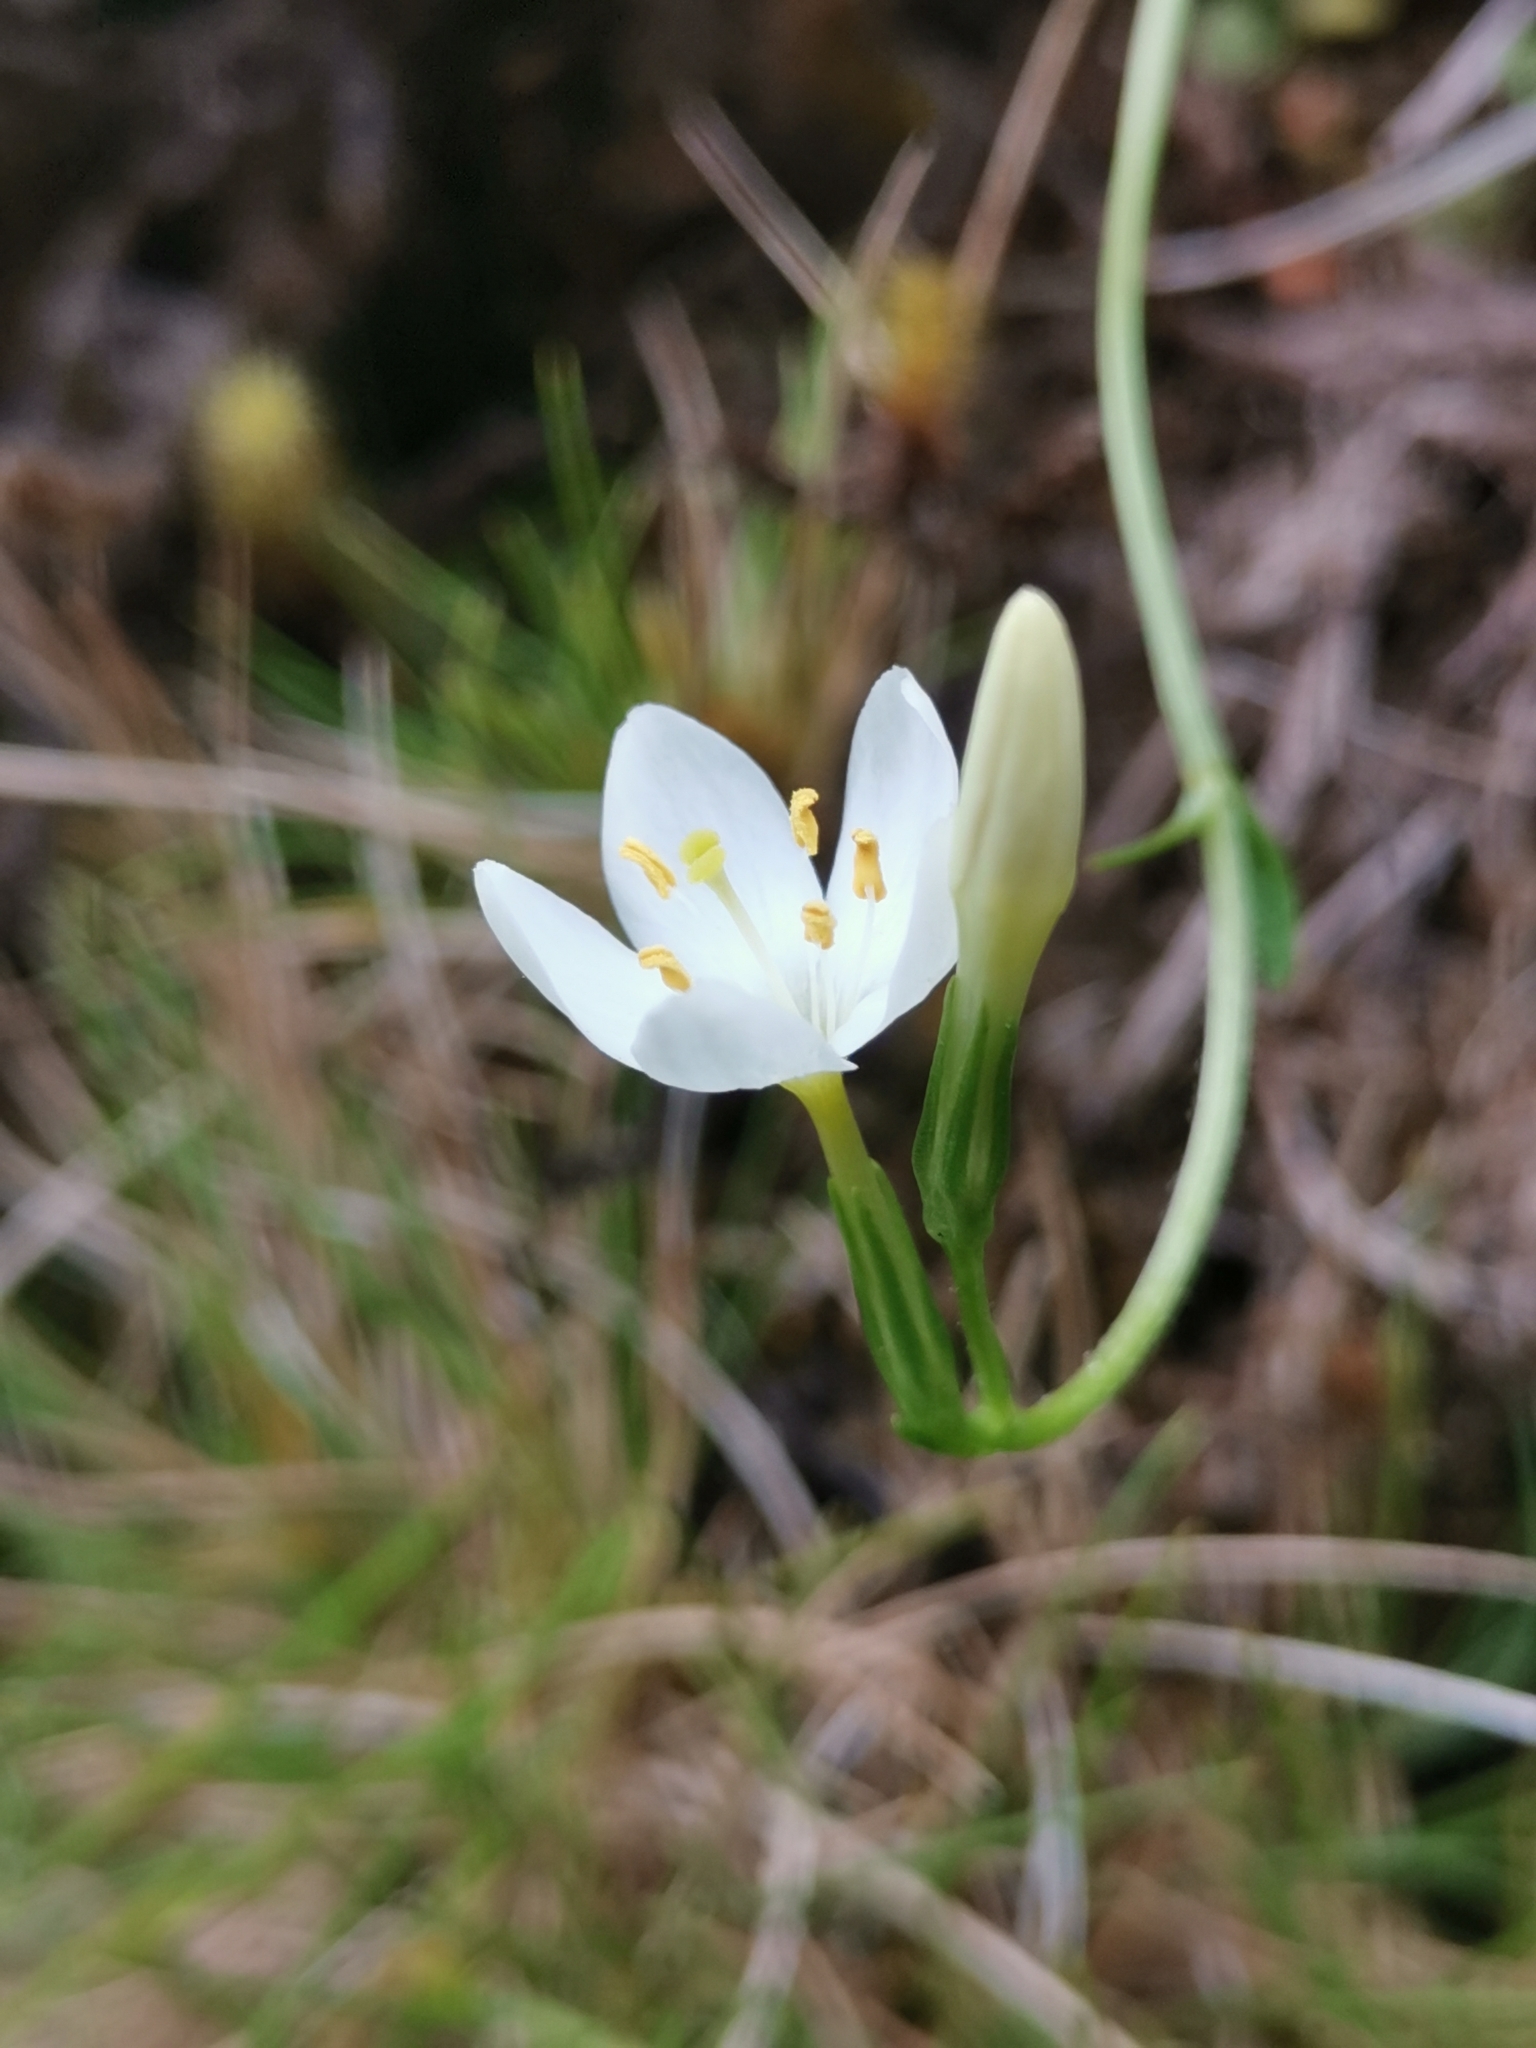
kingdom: Plantae
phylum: Tracheophyta
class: Magnoliopsida
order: Gentianales
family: Gentianaceae
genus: Centaurium
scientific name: Centaurium scilloides
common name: Perennial centaury
